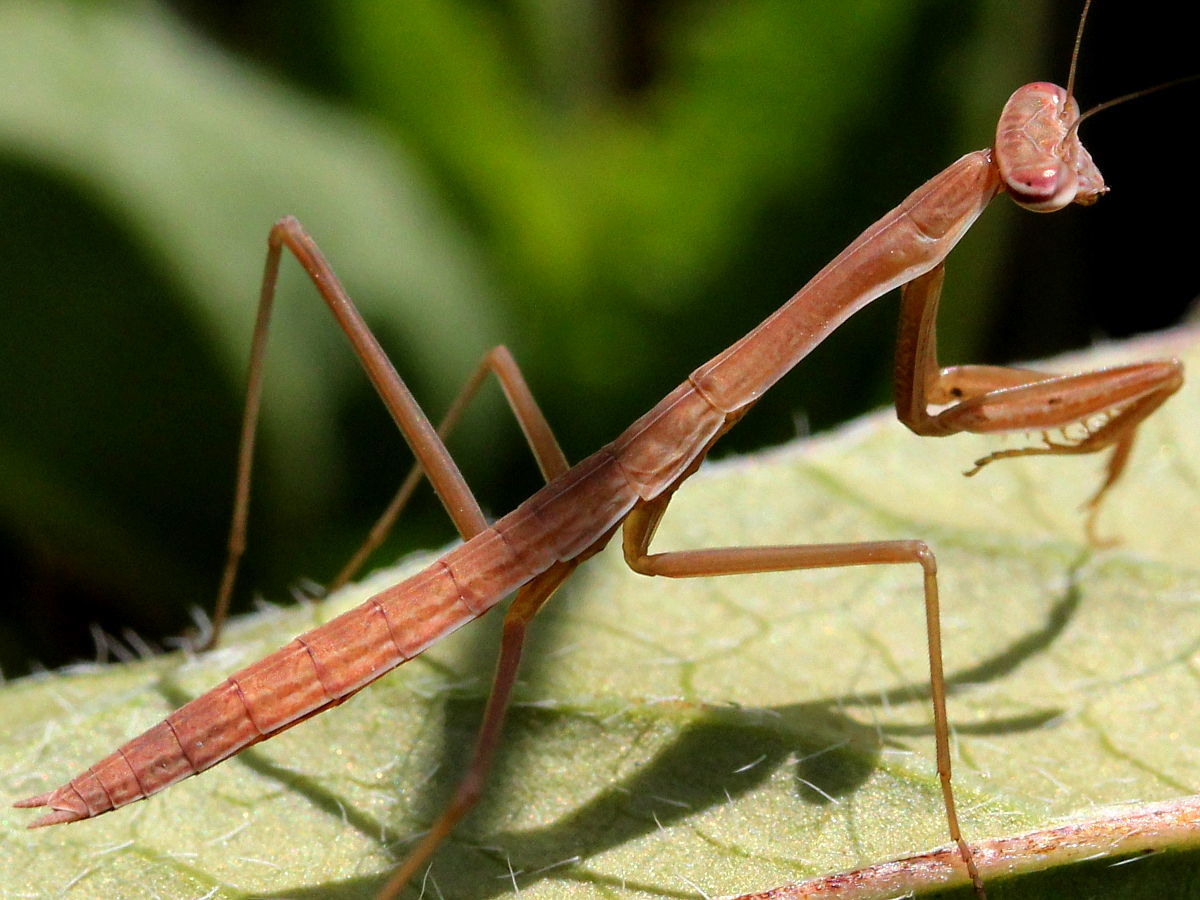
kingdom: Animalia
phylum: Arthropoda
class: Insecta
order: Mantodea
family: Mantidae
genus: Tenodera
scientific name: Tenodera sinensis
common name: Chinese mantis
